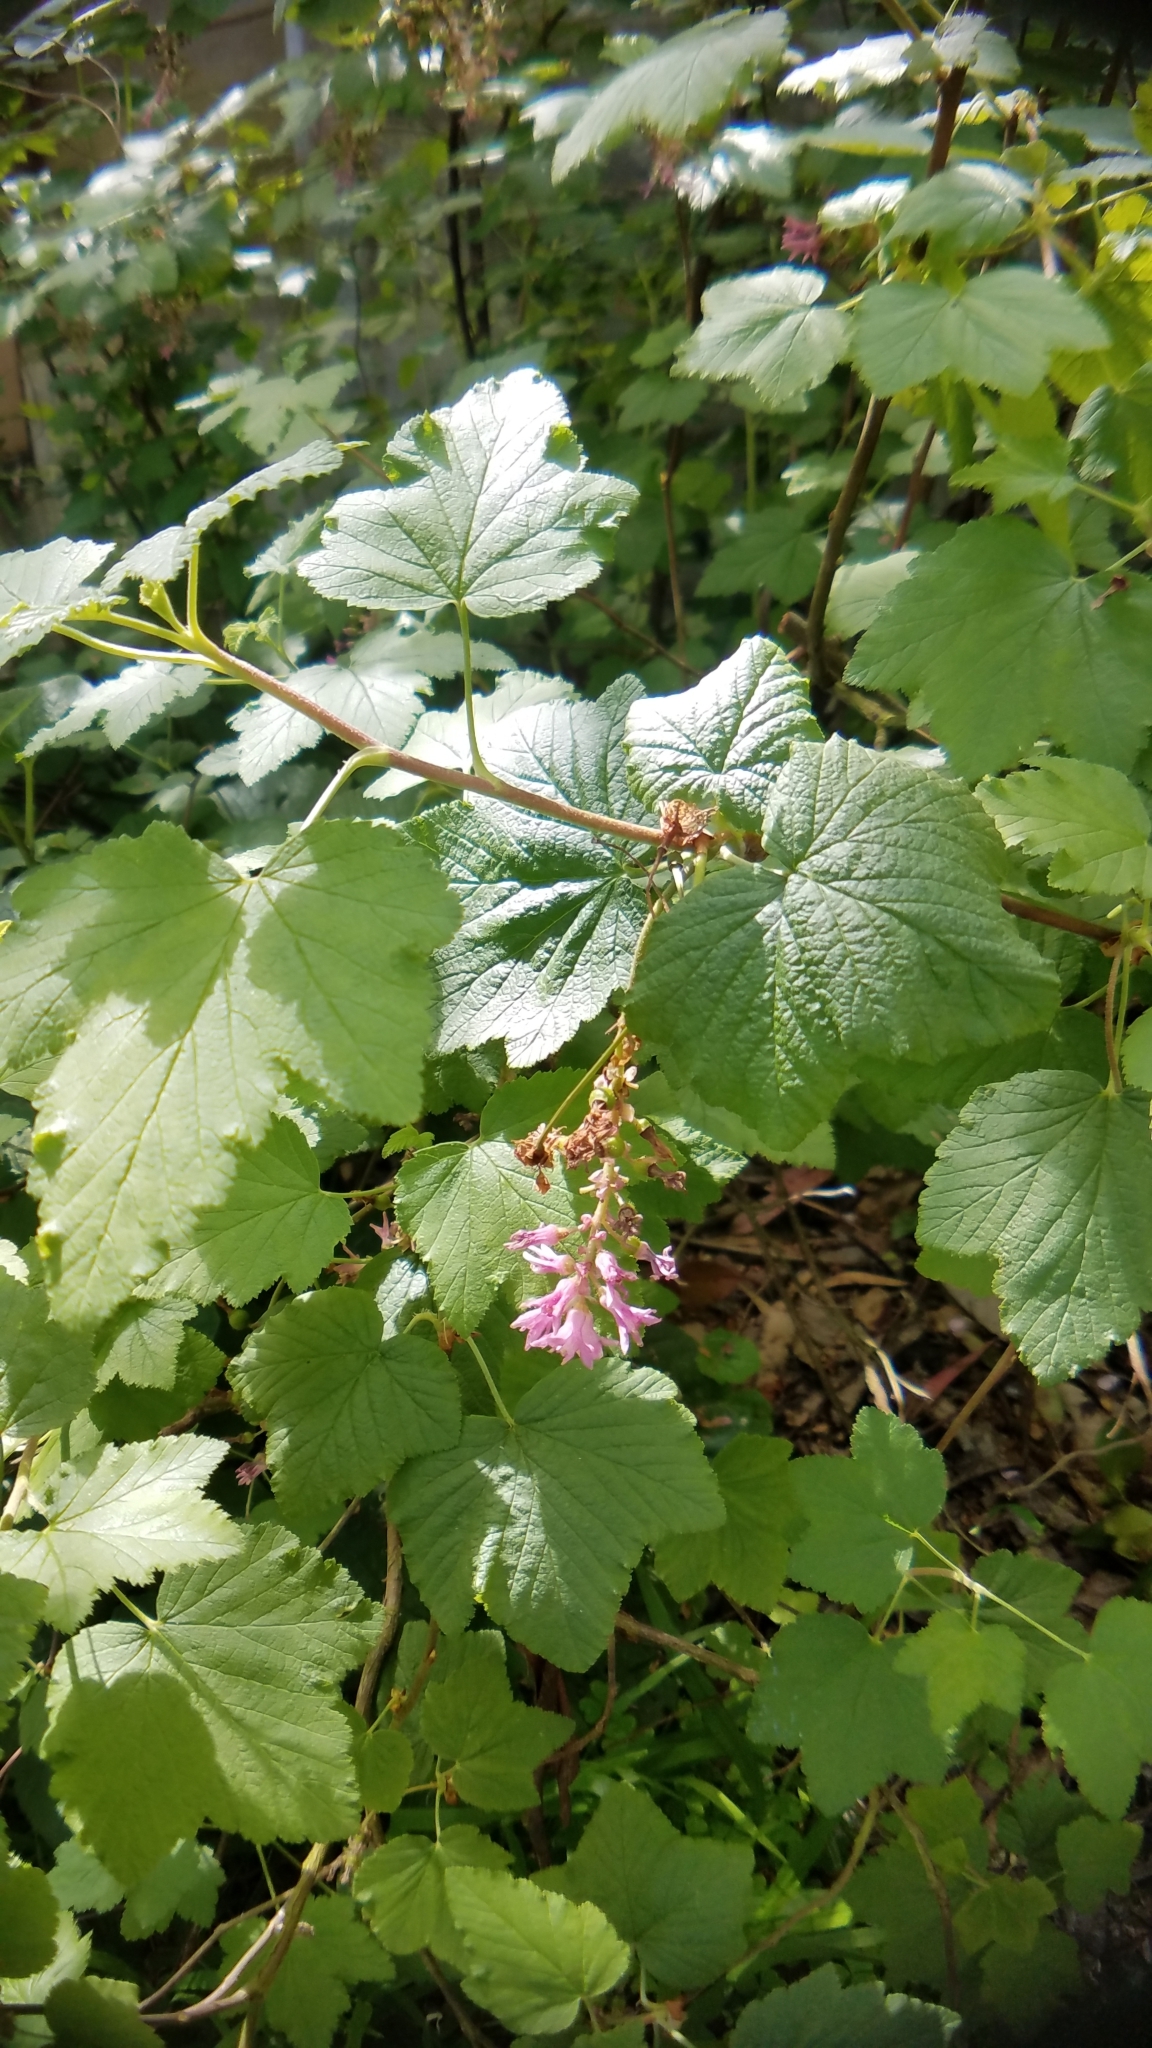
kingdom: Plantae
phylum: Tracheophyta
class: Magnoliopsida
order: Saxifragales
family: Grossulariaceae
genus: Ribes
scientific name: Ribes sanguineum
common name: Flowering currant
